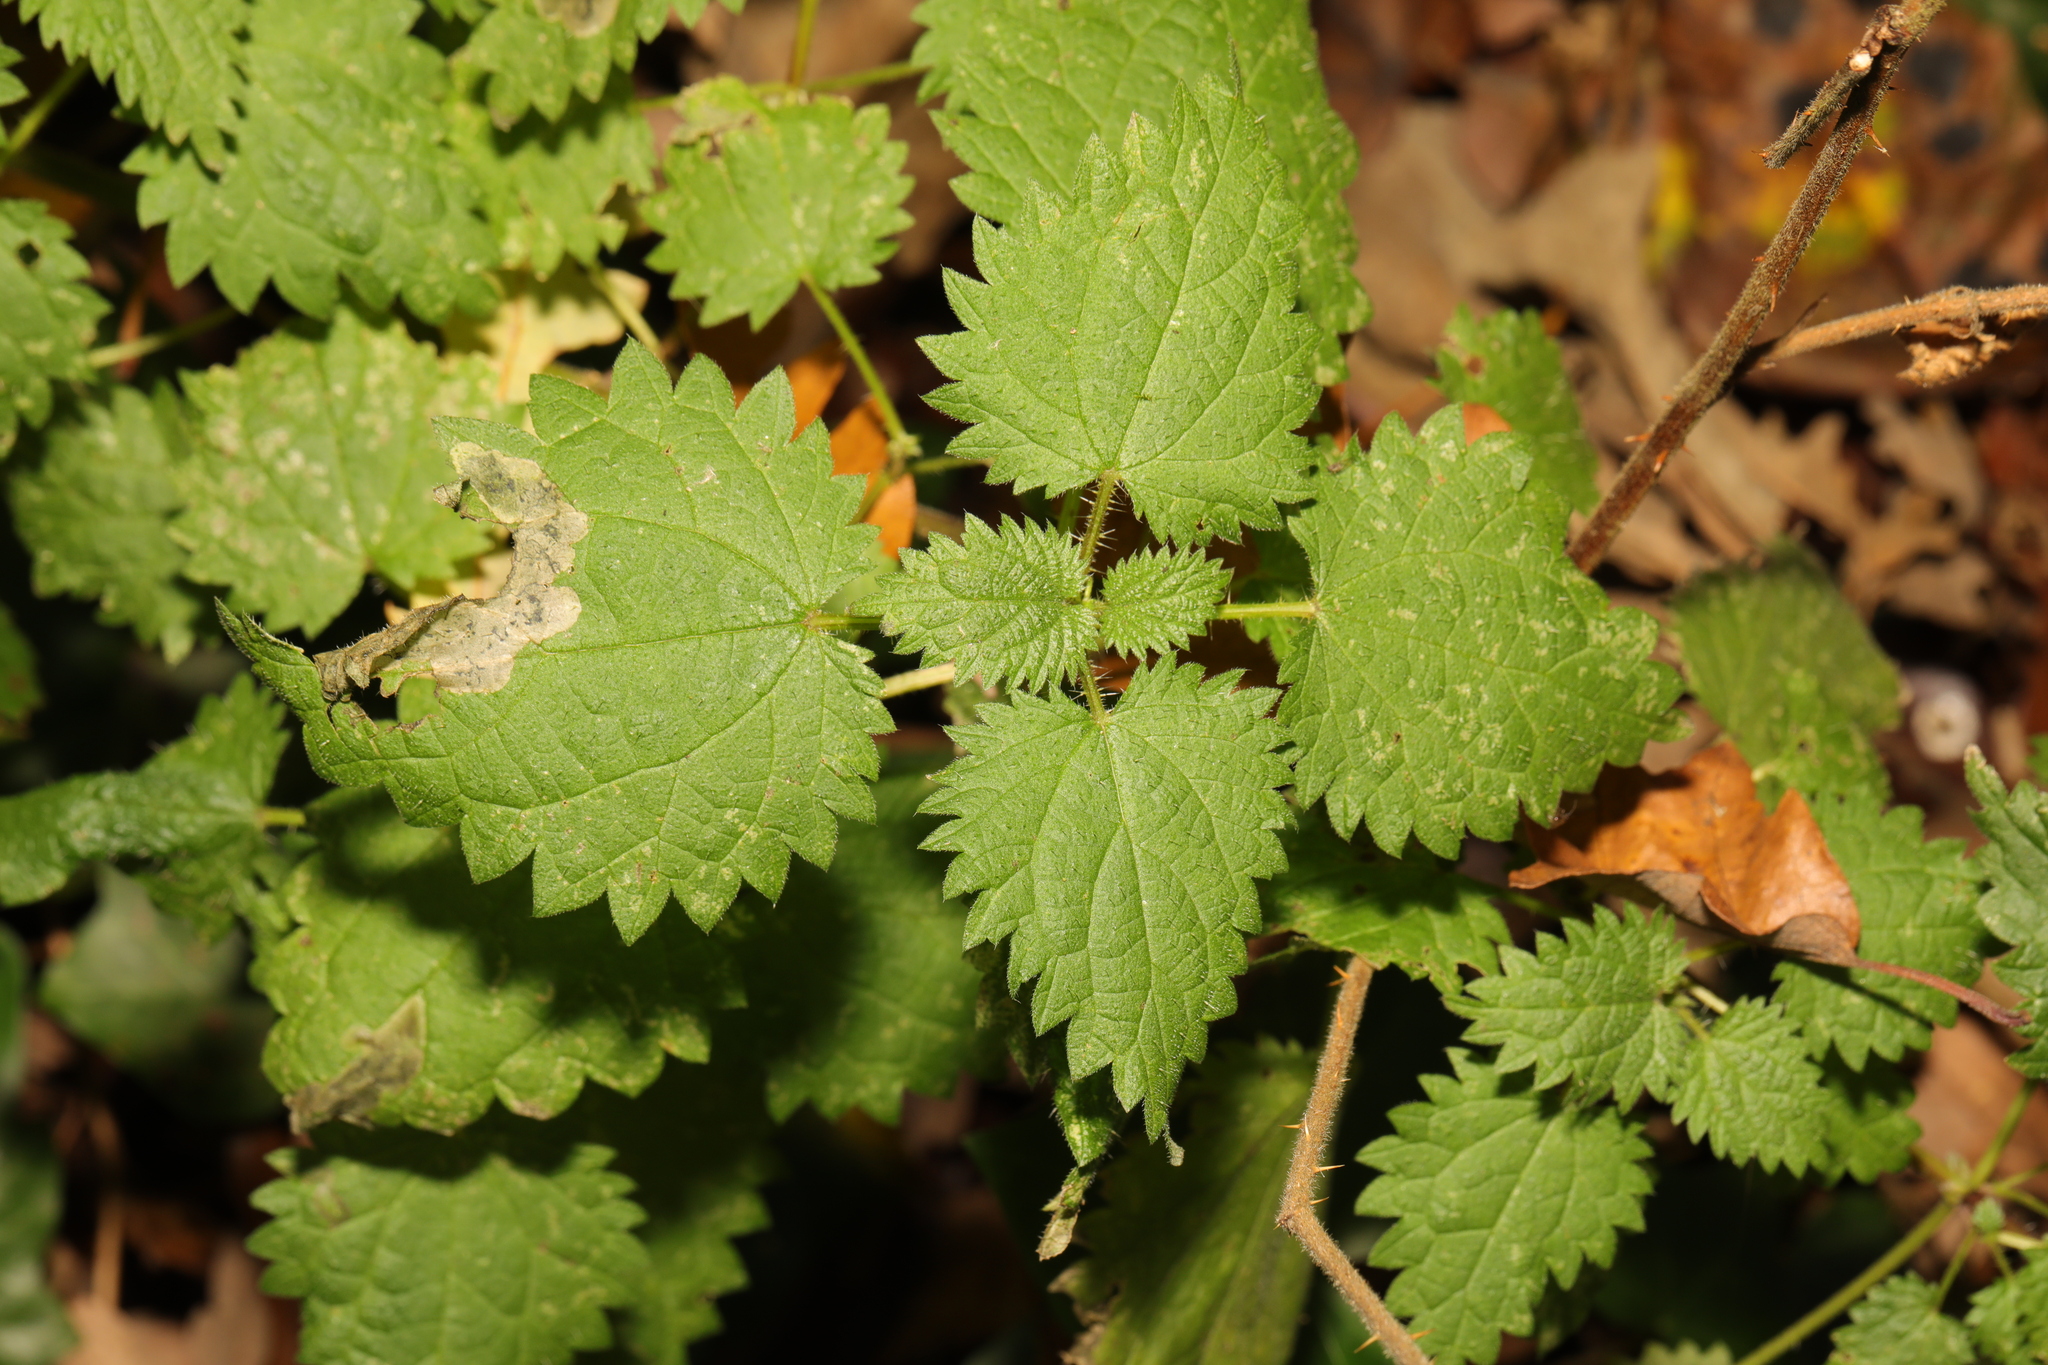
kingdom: Plantae
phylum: Tracheophyta
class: Magnoliopsida
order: Rosales
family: Urticaceae
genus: Urtica
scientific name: Urtica dioica
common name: Common nettle
